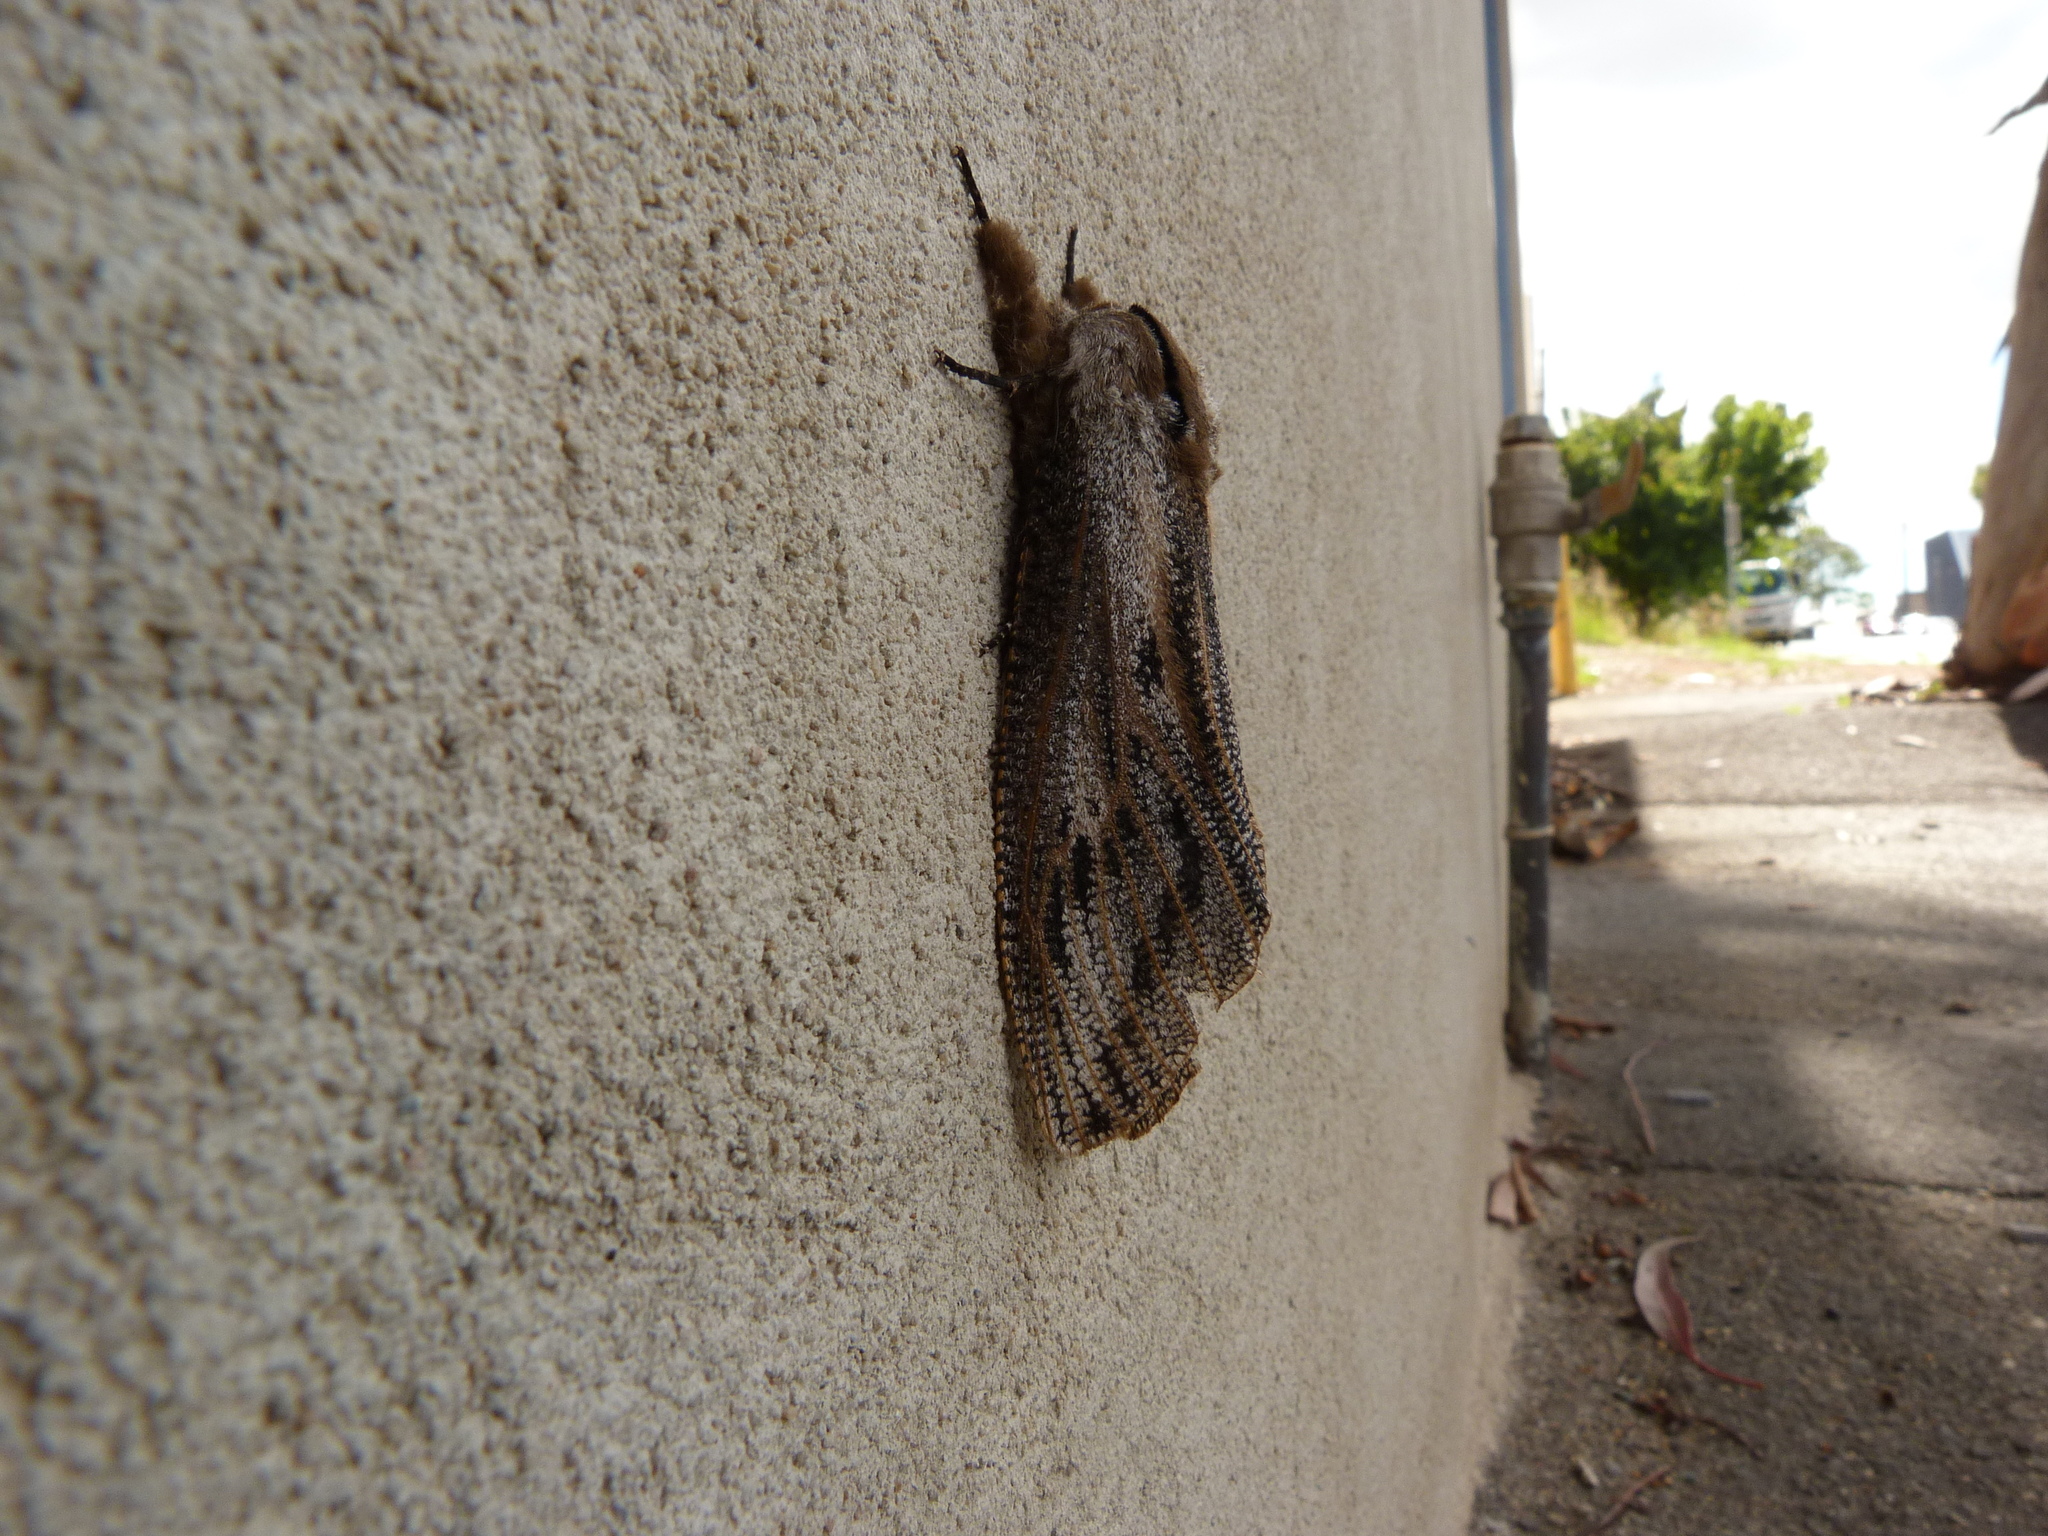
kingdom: Animalia
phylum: Arthropoda
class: Insecta
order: Lepidoptera
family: Cossidae
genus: Endoxyla
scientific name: Endoxyla liturata
